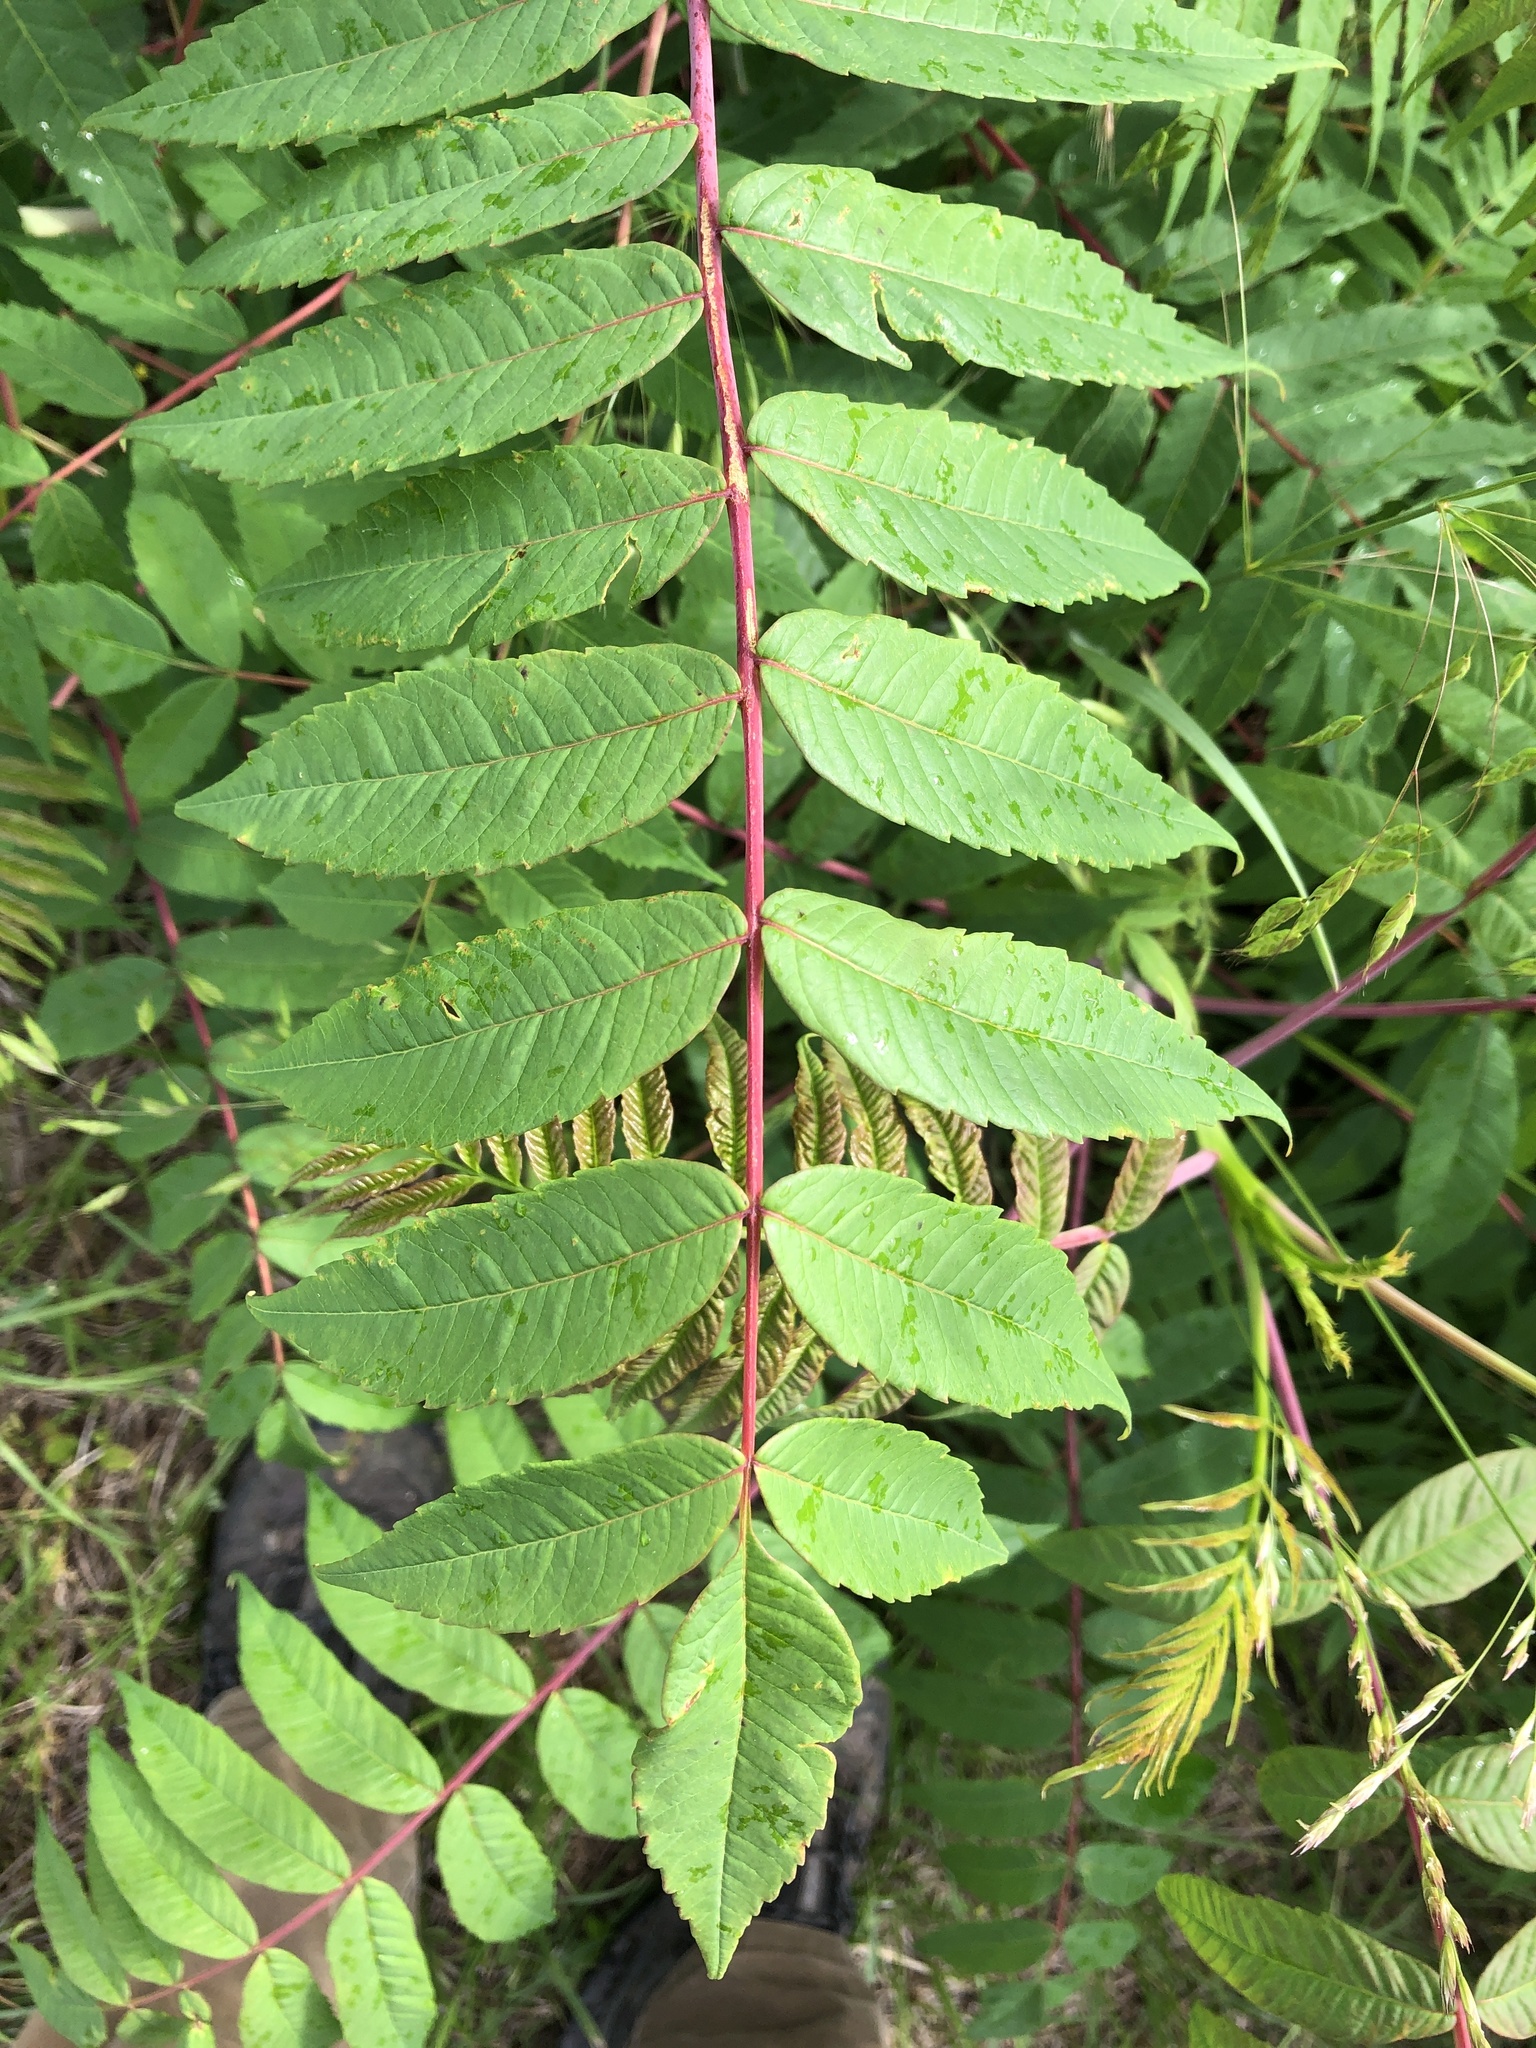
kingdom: Plantae
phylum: Tracheophyta
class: Magnoliopsida
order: Sapindales
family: Anacardiaceae
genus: Rhus
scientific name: Rhus glabra
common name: Scarlet sumac
